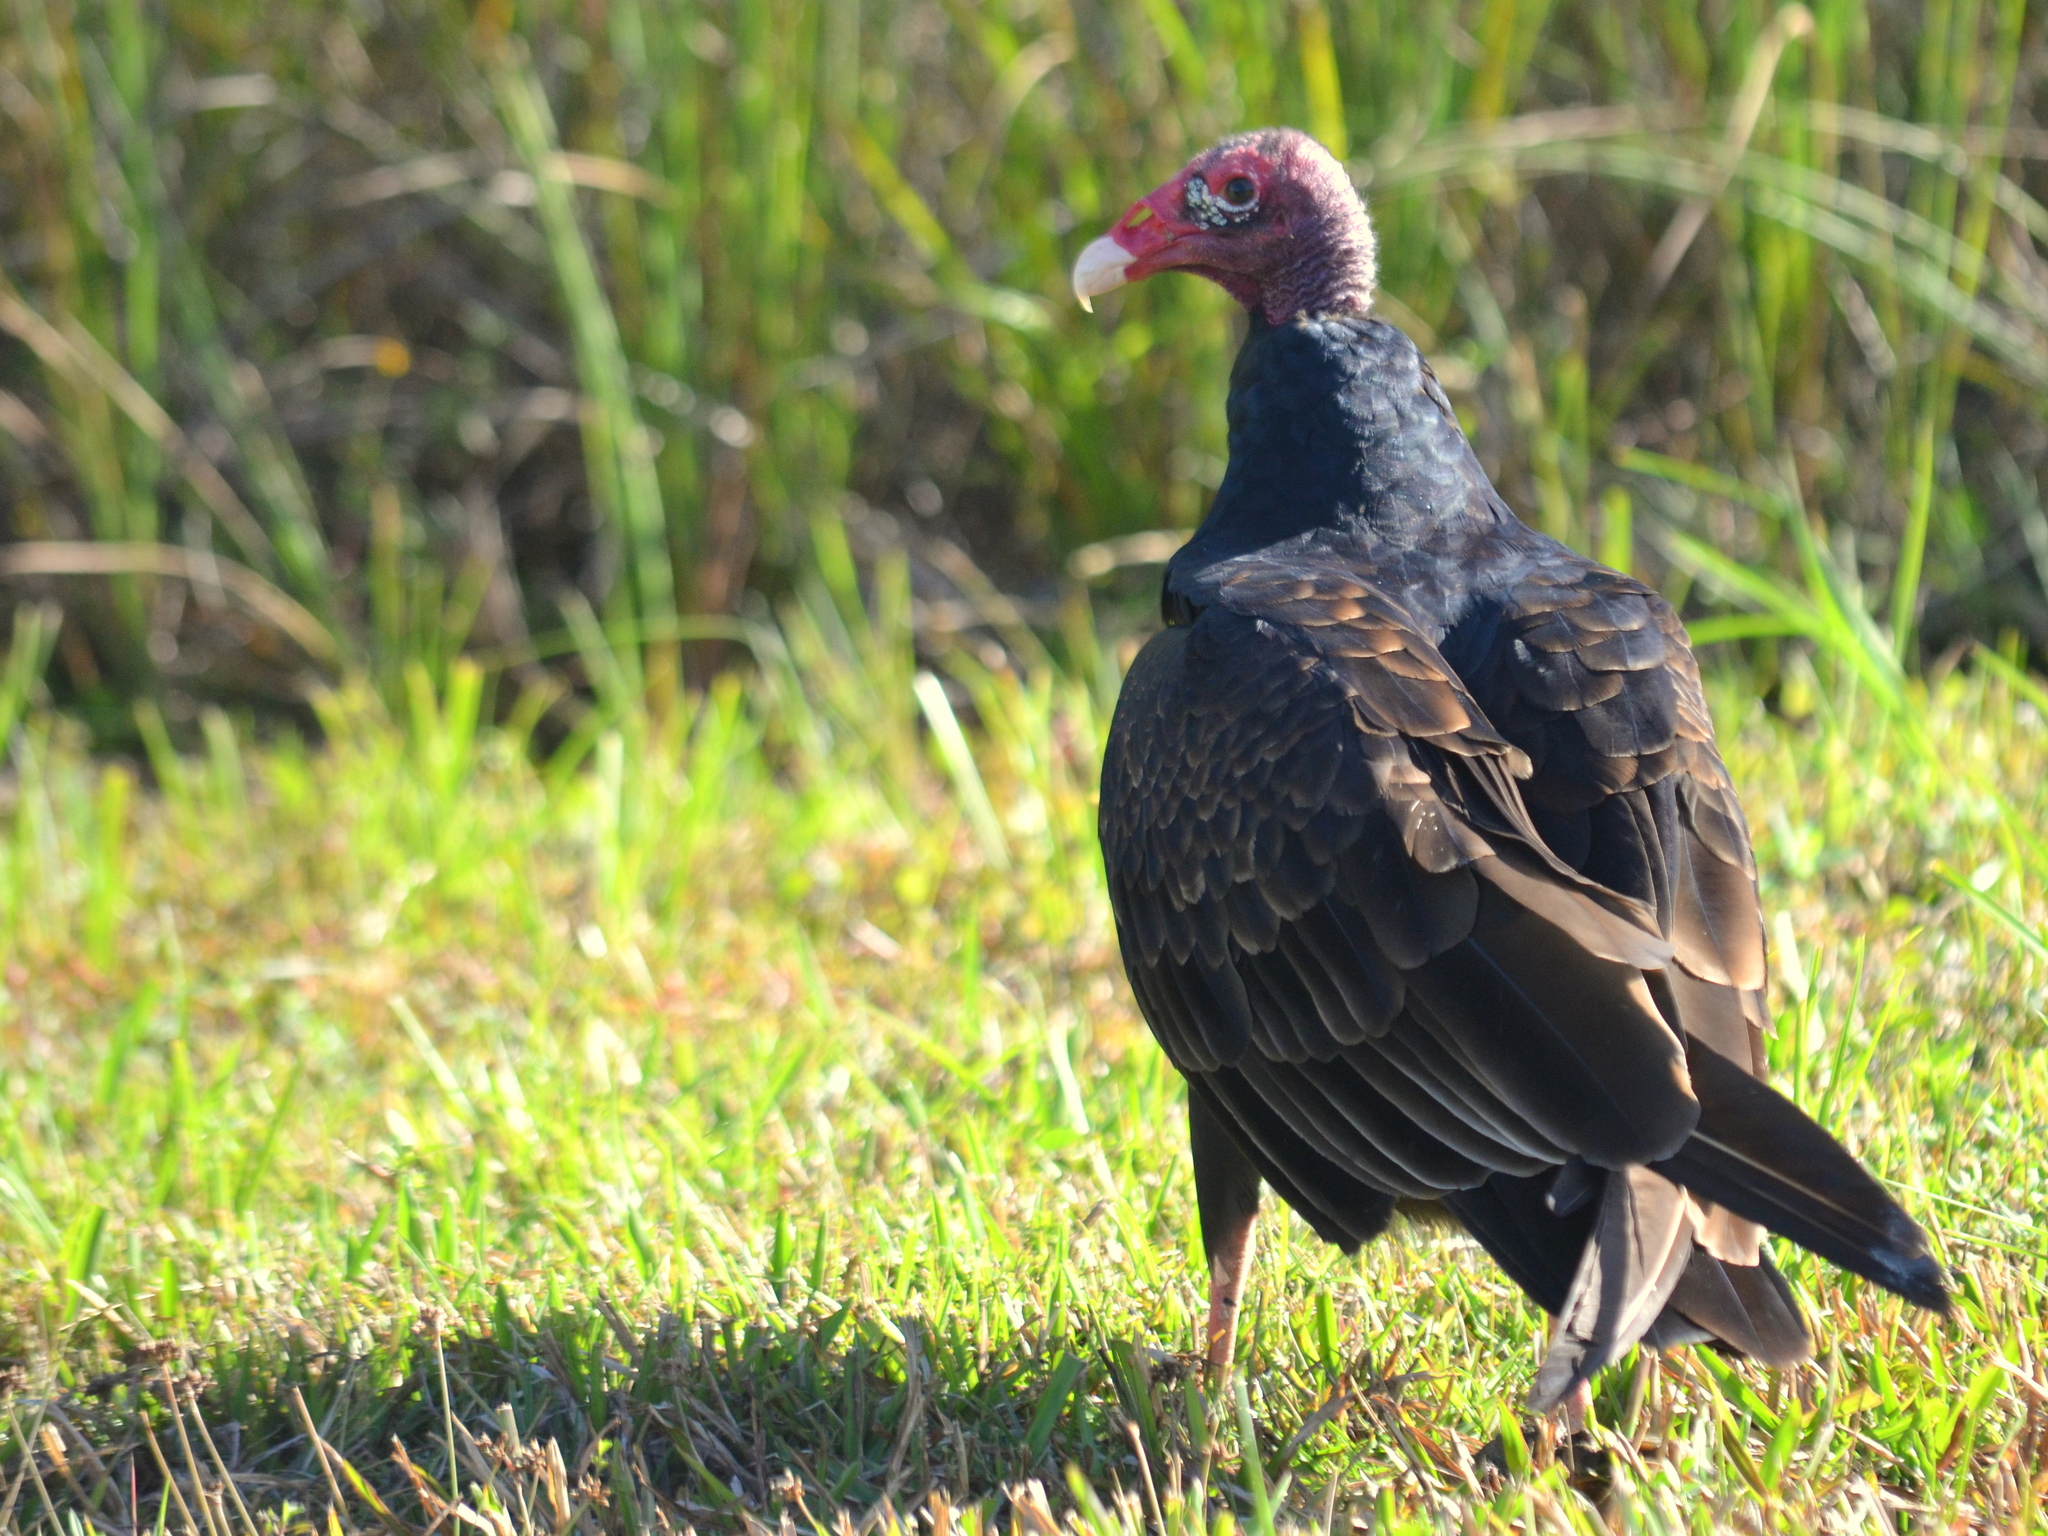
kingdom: Animalia
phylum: Chordata
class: Aves
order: Accipitriformes
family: Cathartidae
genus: Cathartes
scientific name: Cathartes aura
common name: Turkey vulture
